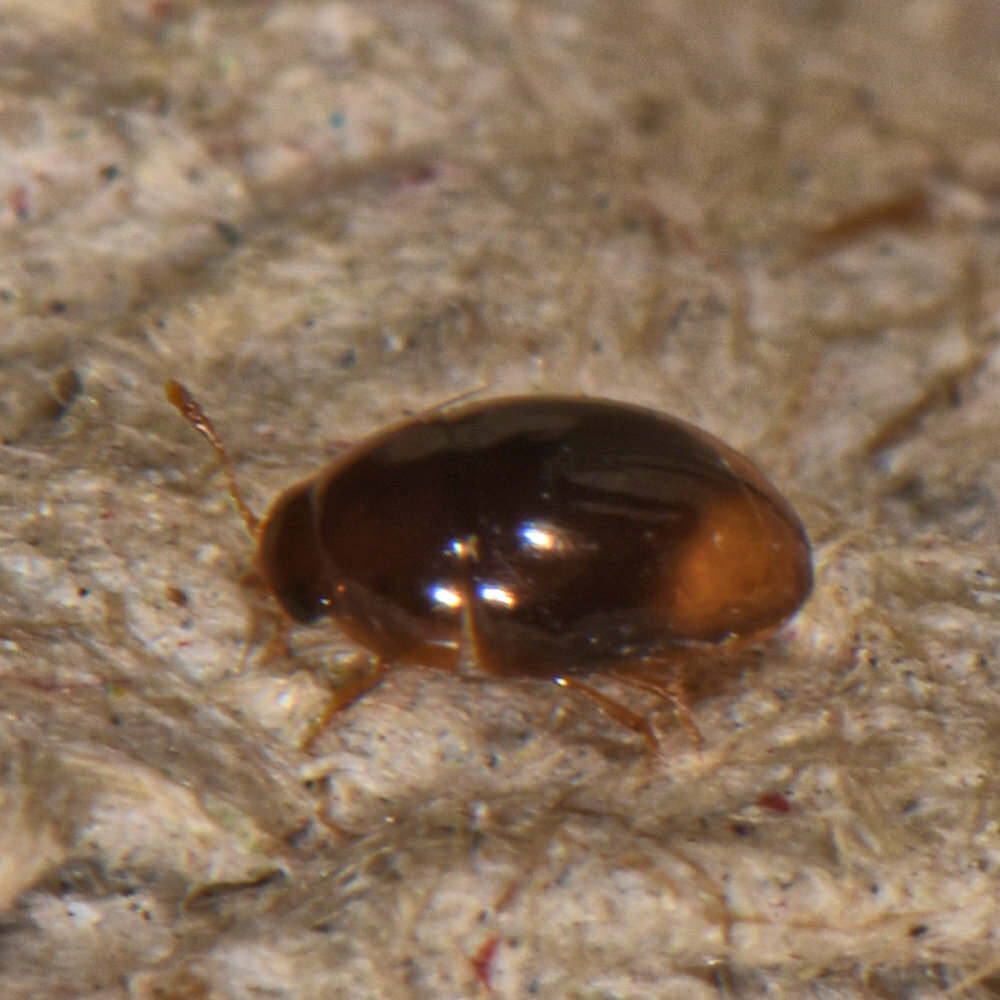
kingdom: Animalia
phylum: Arthropoda
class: Insecta
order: Coleoptera
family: Phalacridae
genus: Phalacrus
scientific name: Phalacrus apicalis
